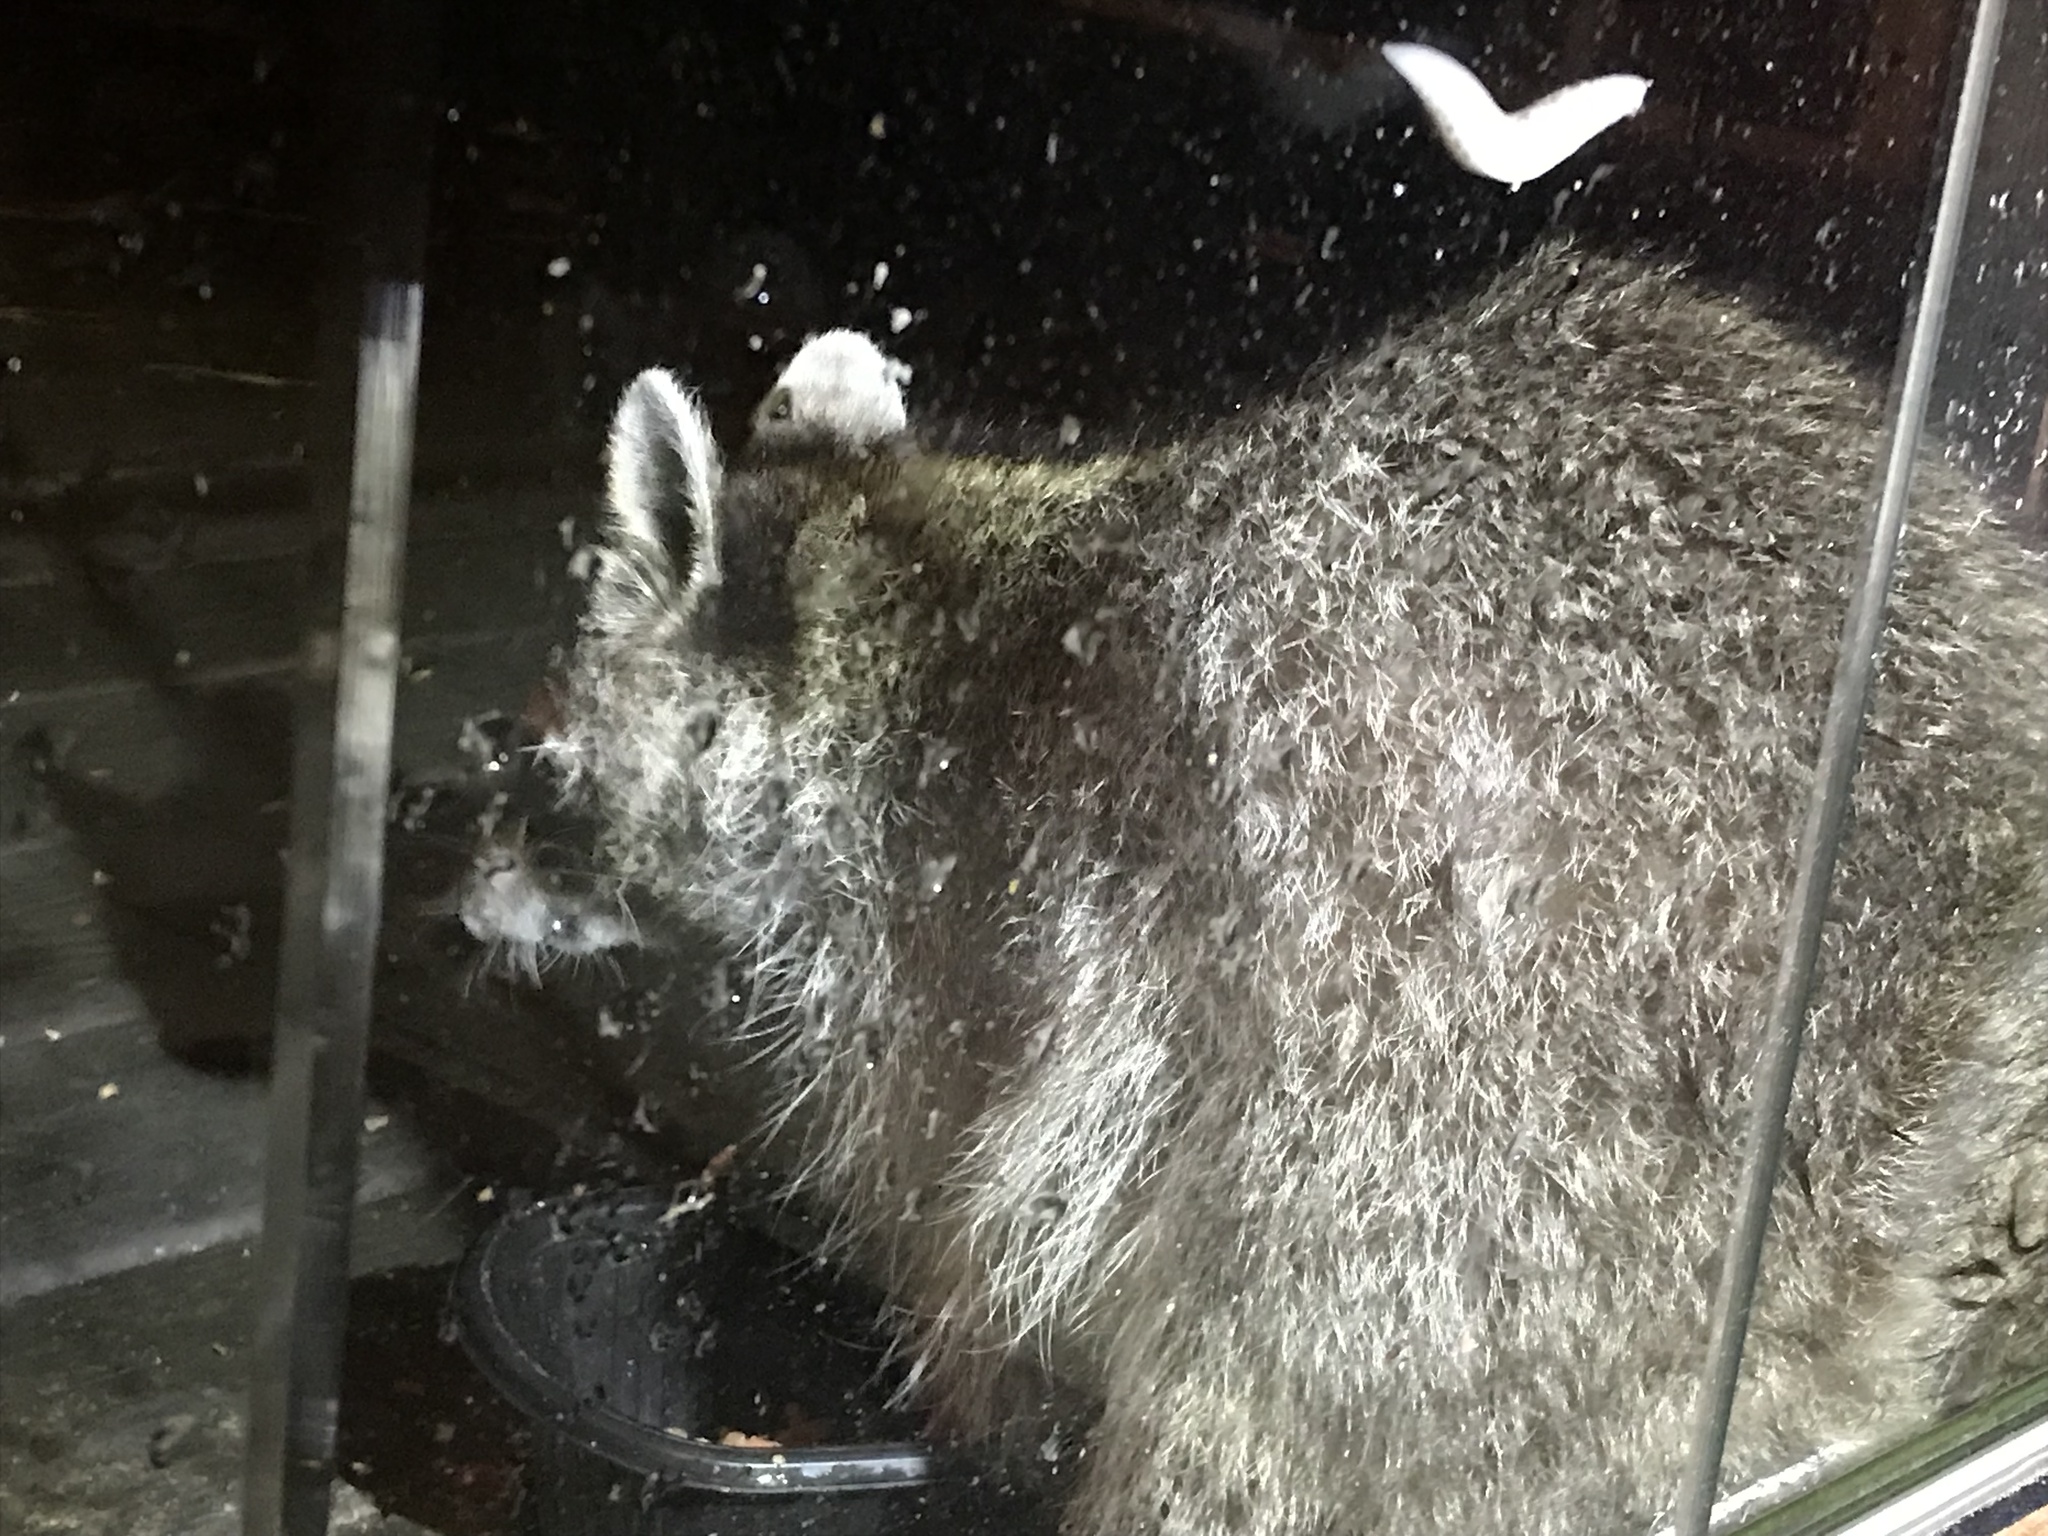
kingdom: Animalia
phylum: Chordata
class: Mammalia
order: Carnivora
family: Procyonidae
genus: Procyon
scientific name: Procyon lotor
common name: Raccoon
